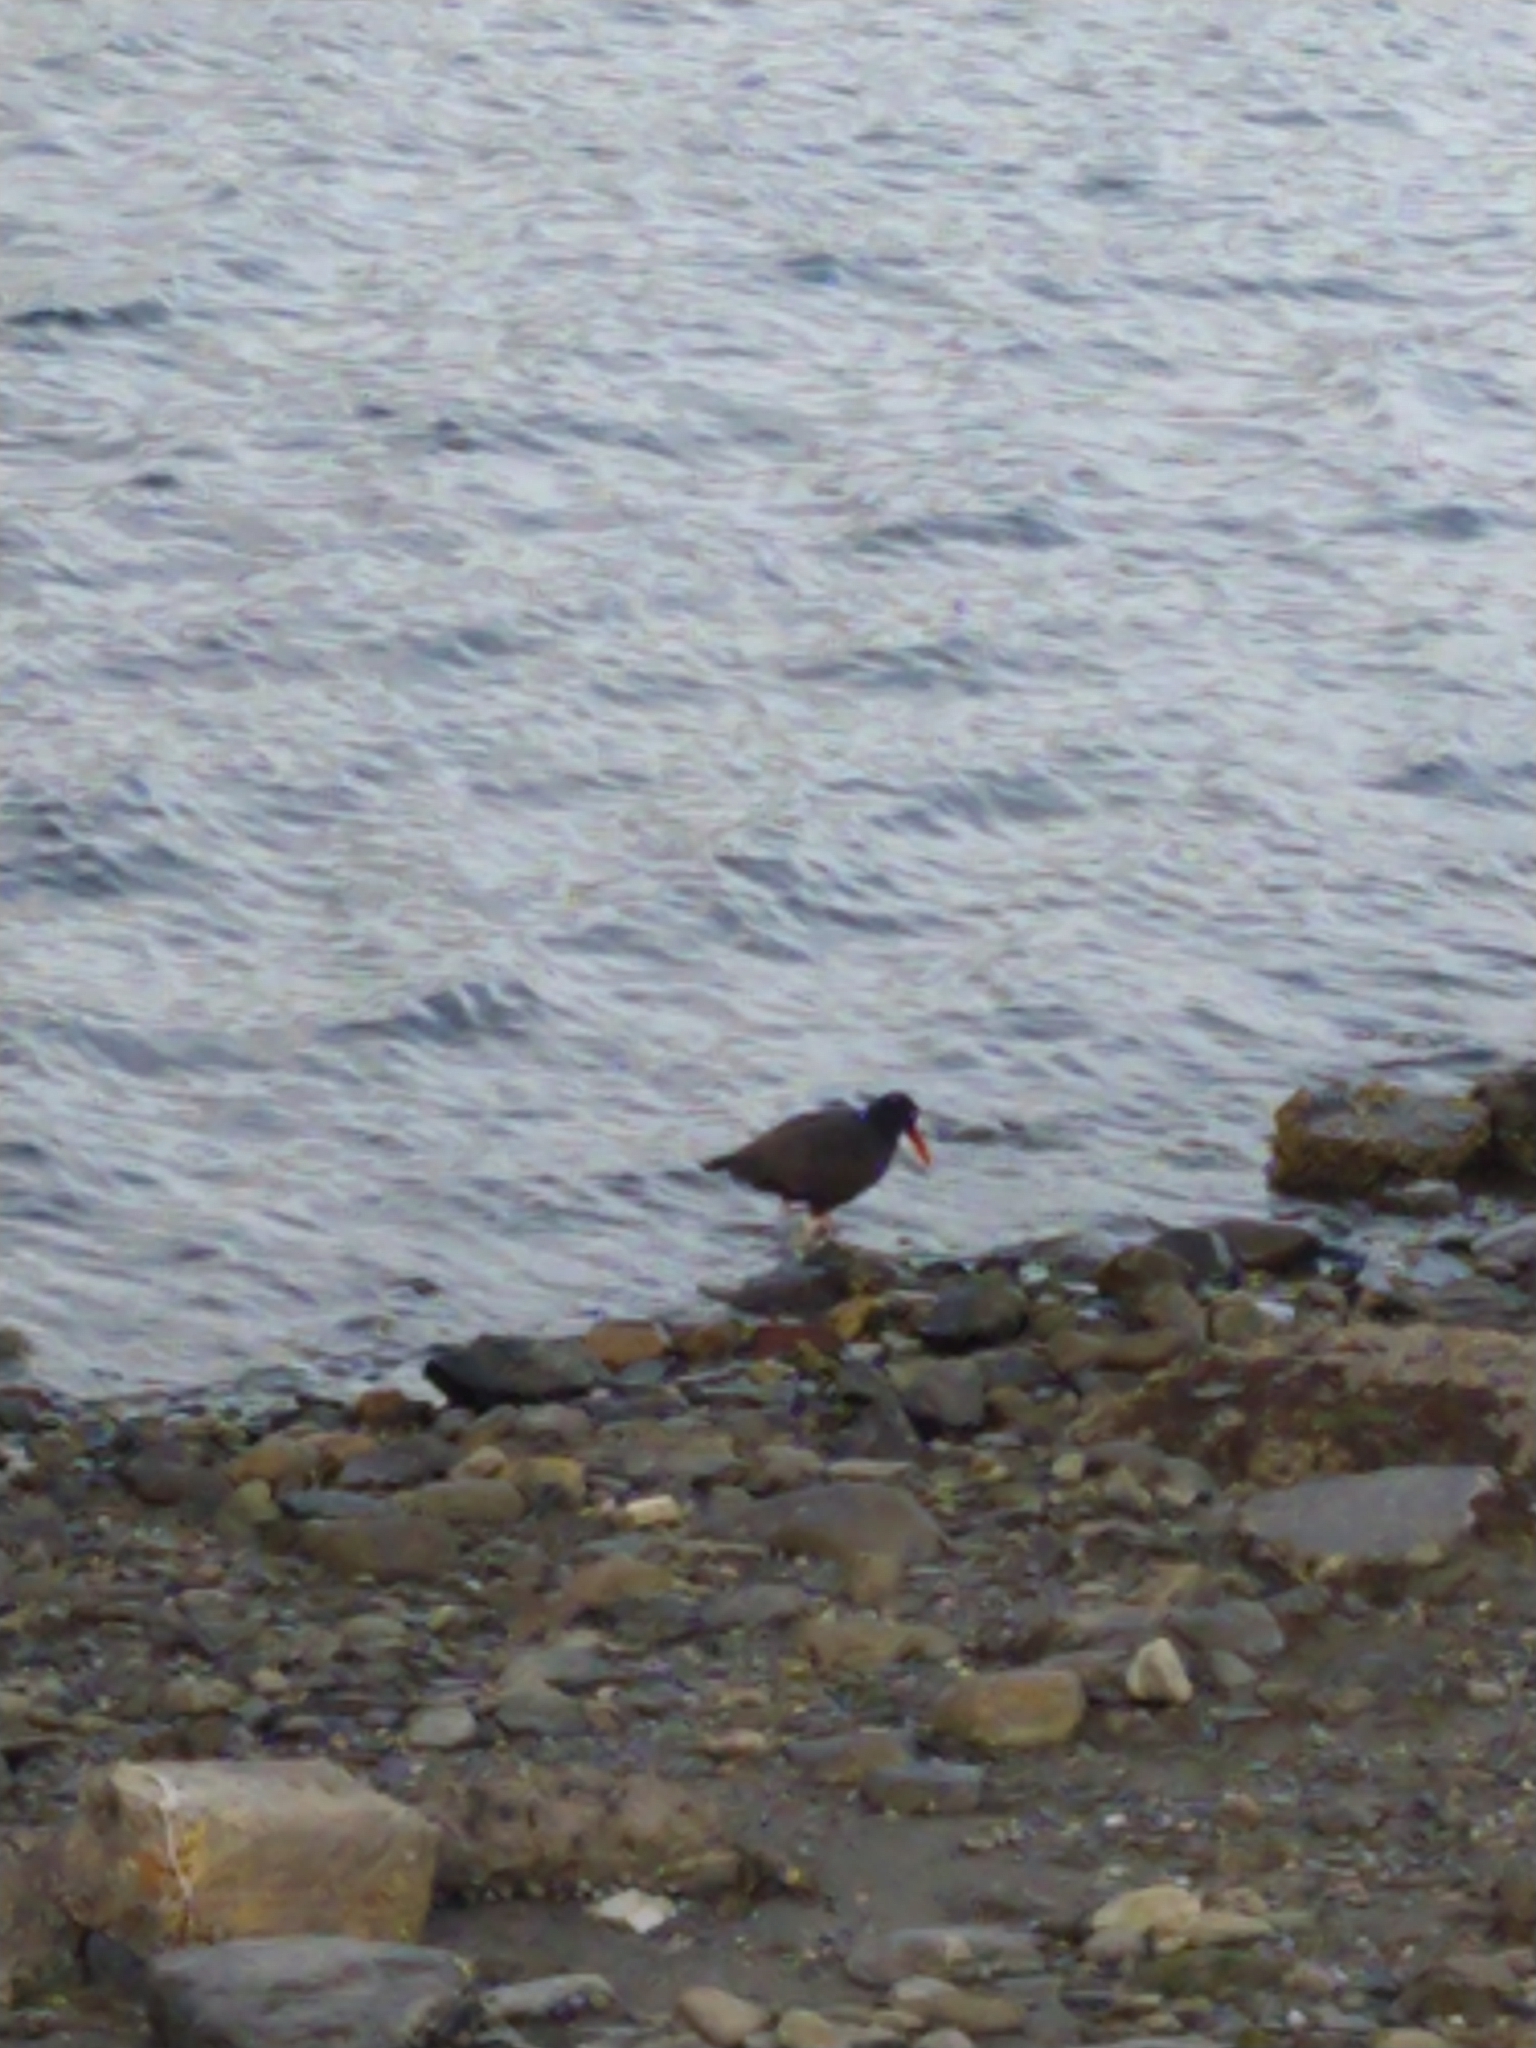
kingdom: Animalia
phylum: Chordata
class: Aves
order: Charadriiformes
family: Haematopodidae
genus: Haematopus
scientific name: Haematopus ater
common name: Blackish oystercatcher
